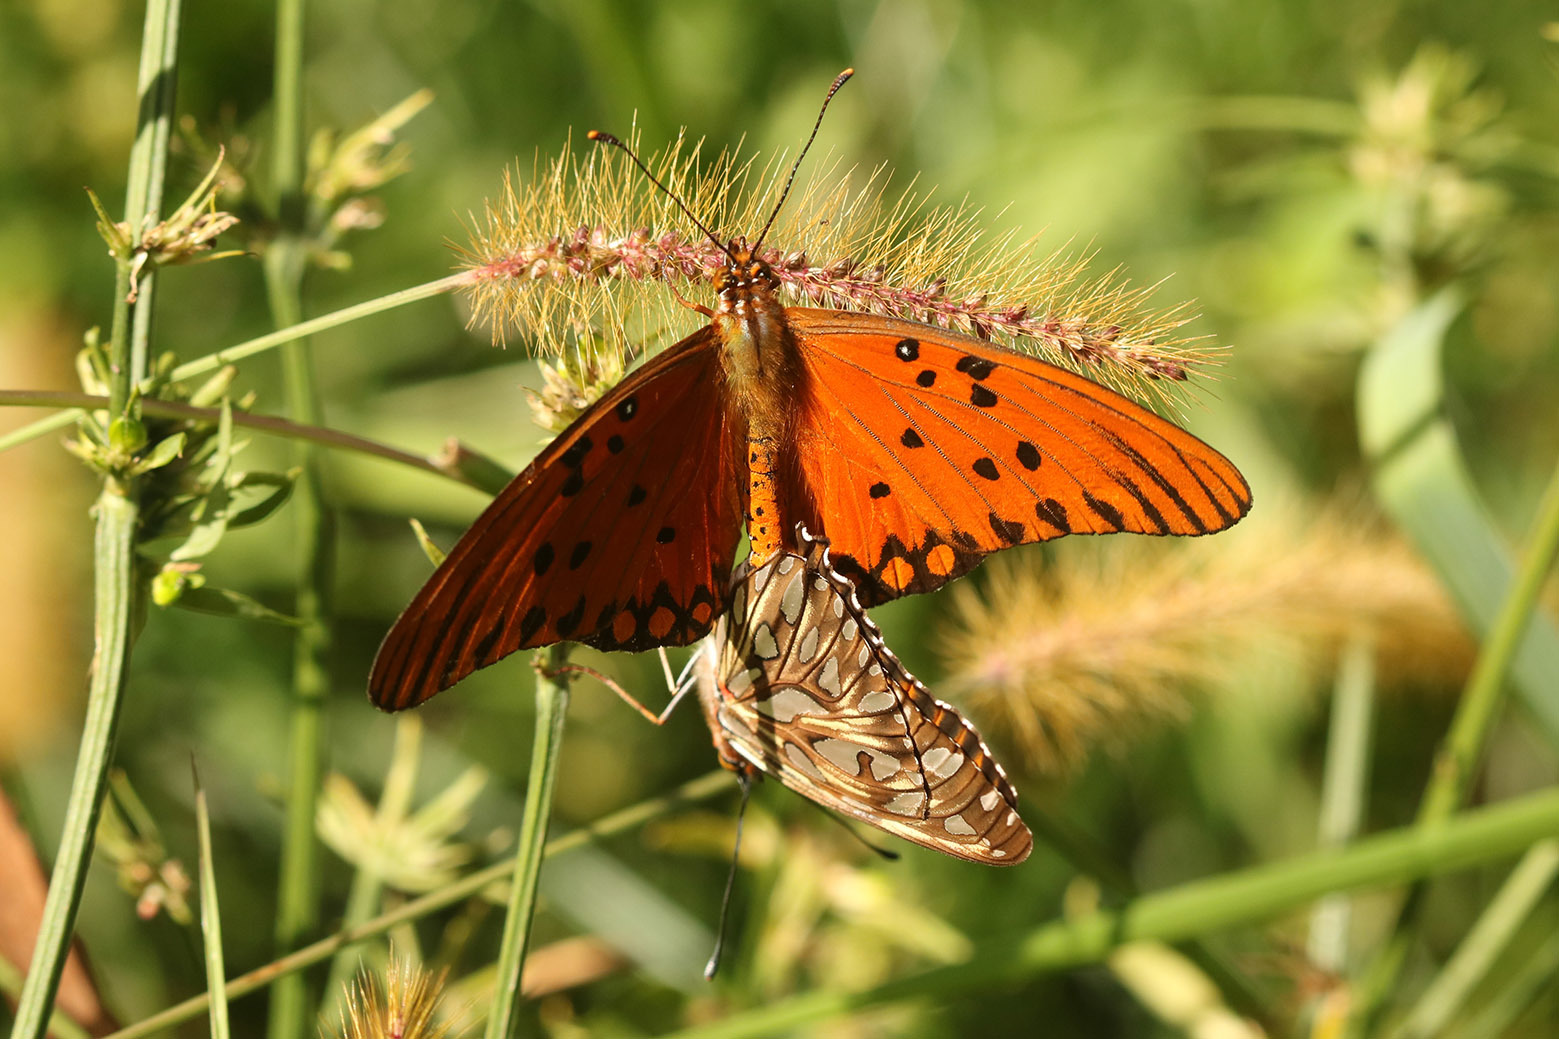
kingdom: Animalia
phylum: Arthropoda
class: Insecta
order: Lepidoptera
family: Nymphalidae
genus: Dione
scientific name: Dione vanillae
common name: Gulf fritillary
